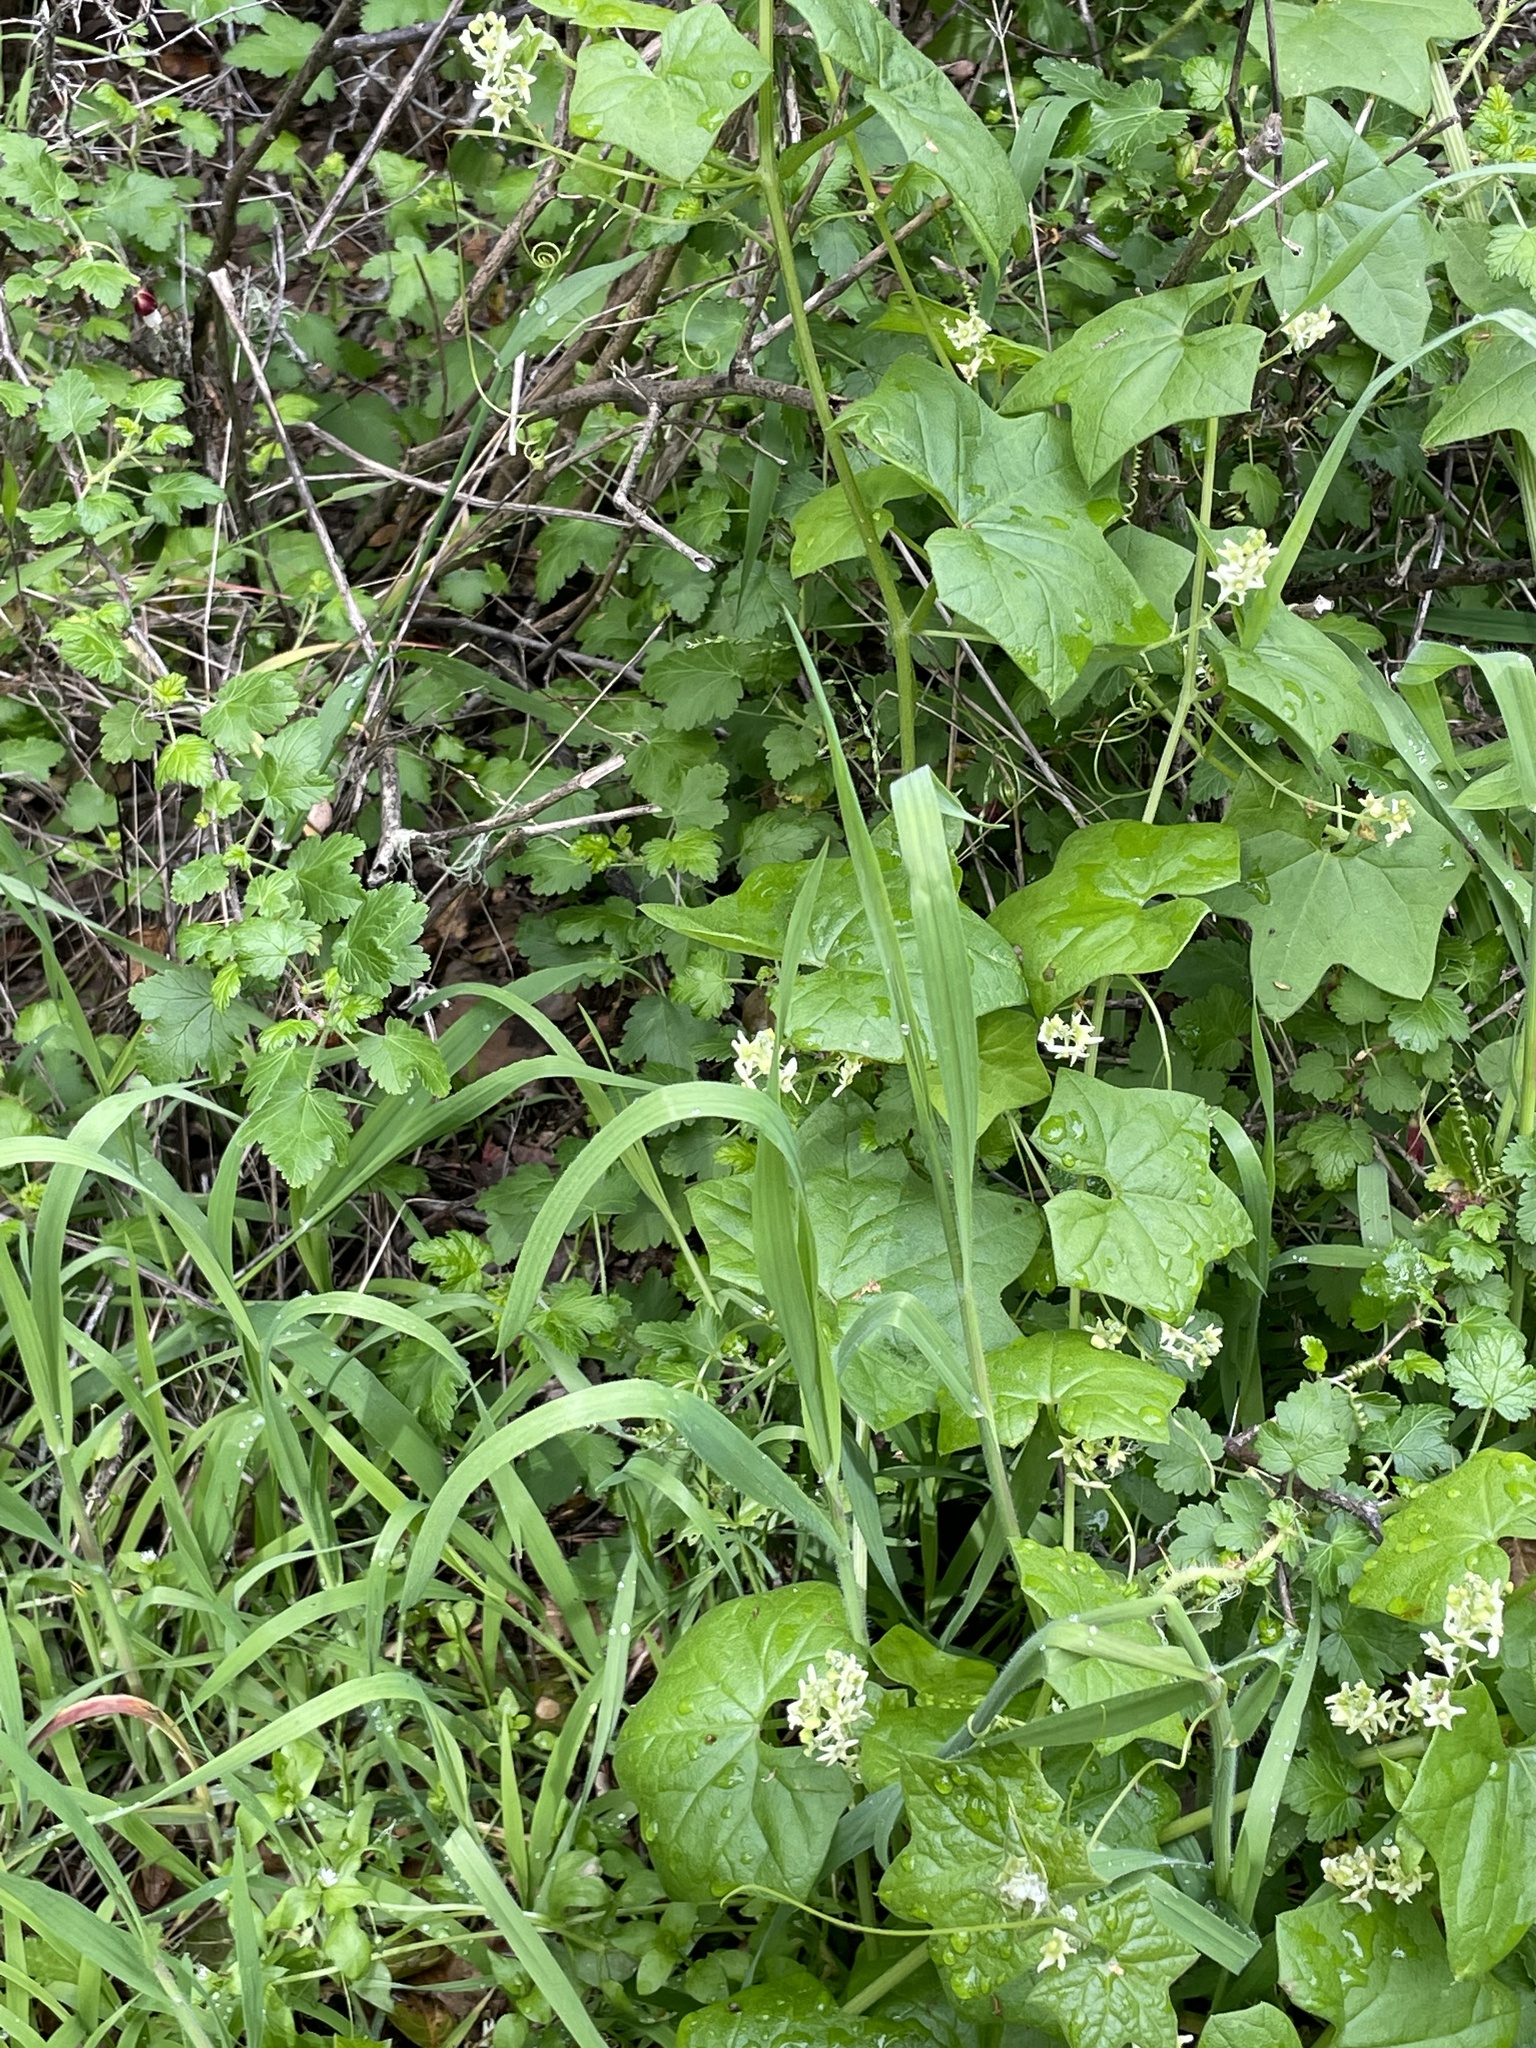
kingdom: Plantae
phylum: Tracheophyta
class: Magnoliopsida
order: Cucurbitales
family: Cucurbitaceae
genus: Marah
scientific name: Marah fabacea
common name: California manroot
